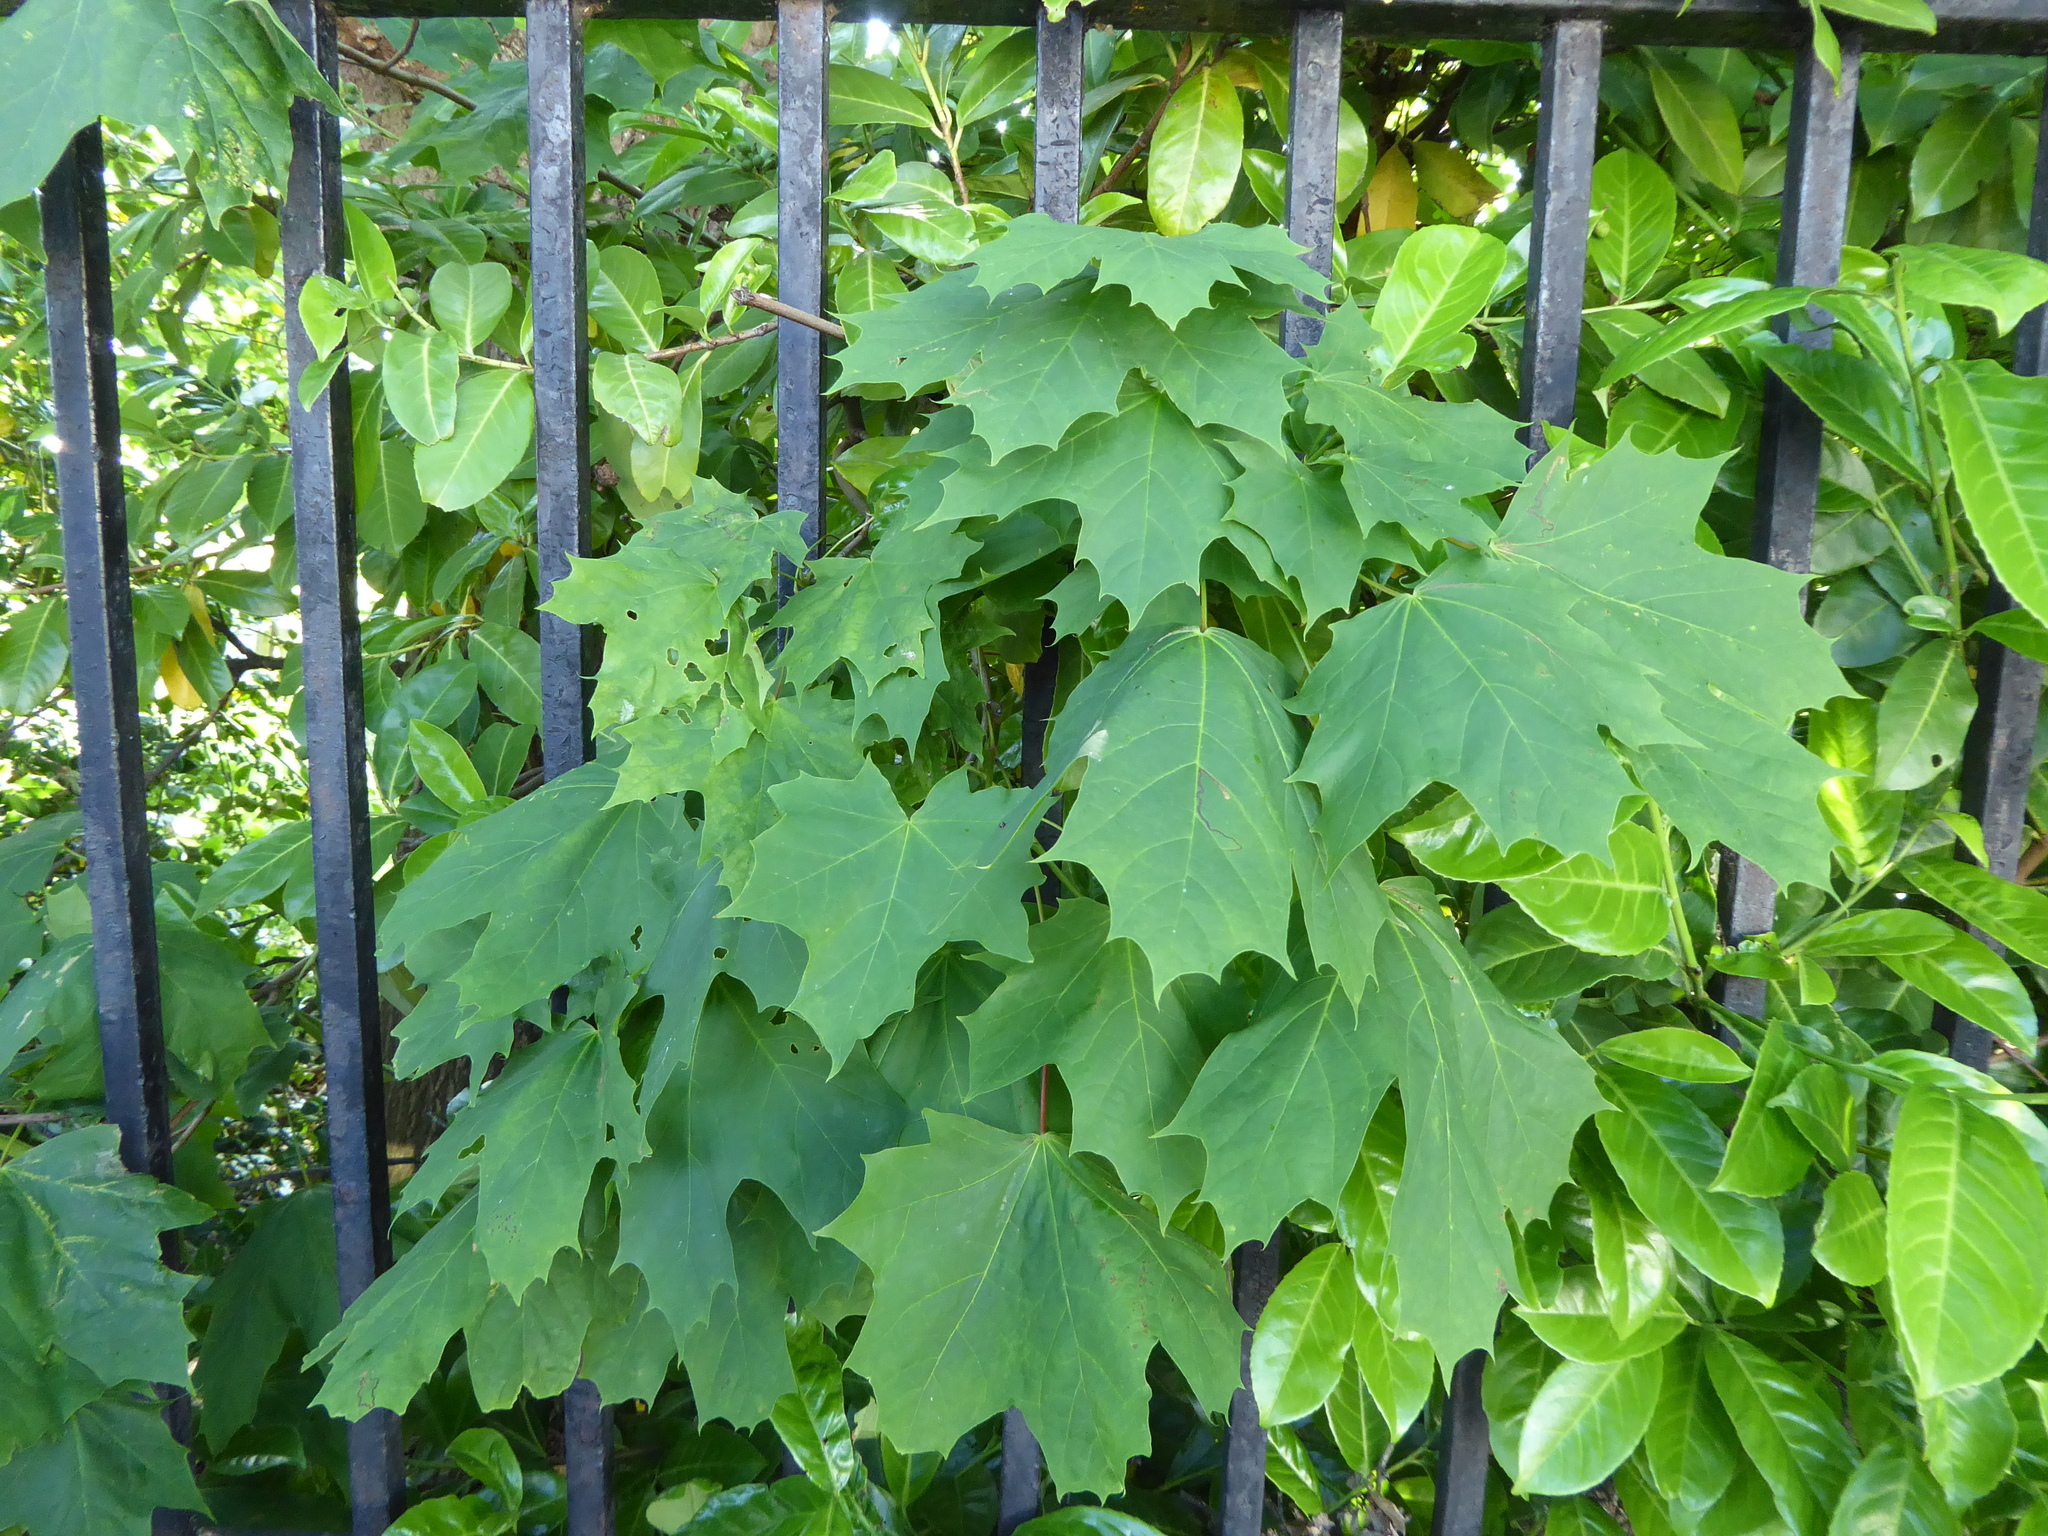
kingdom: Plantae
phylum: Tracheophyta
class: Magnoliopsida
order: Sapindales
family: Sapindaceae
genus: Acer
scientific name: Acer platanoides
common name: Norway maple
